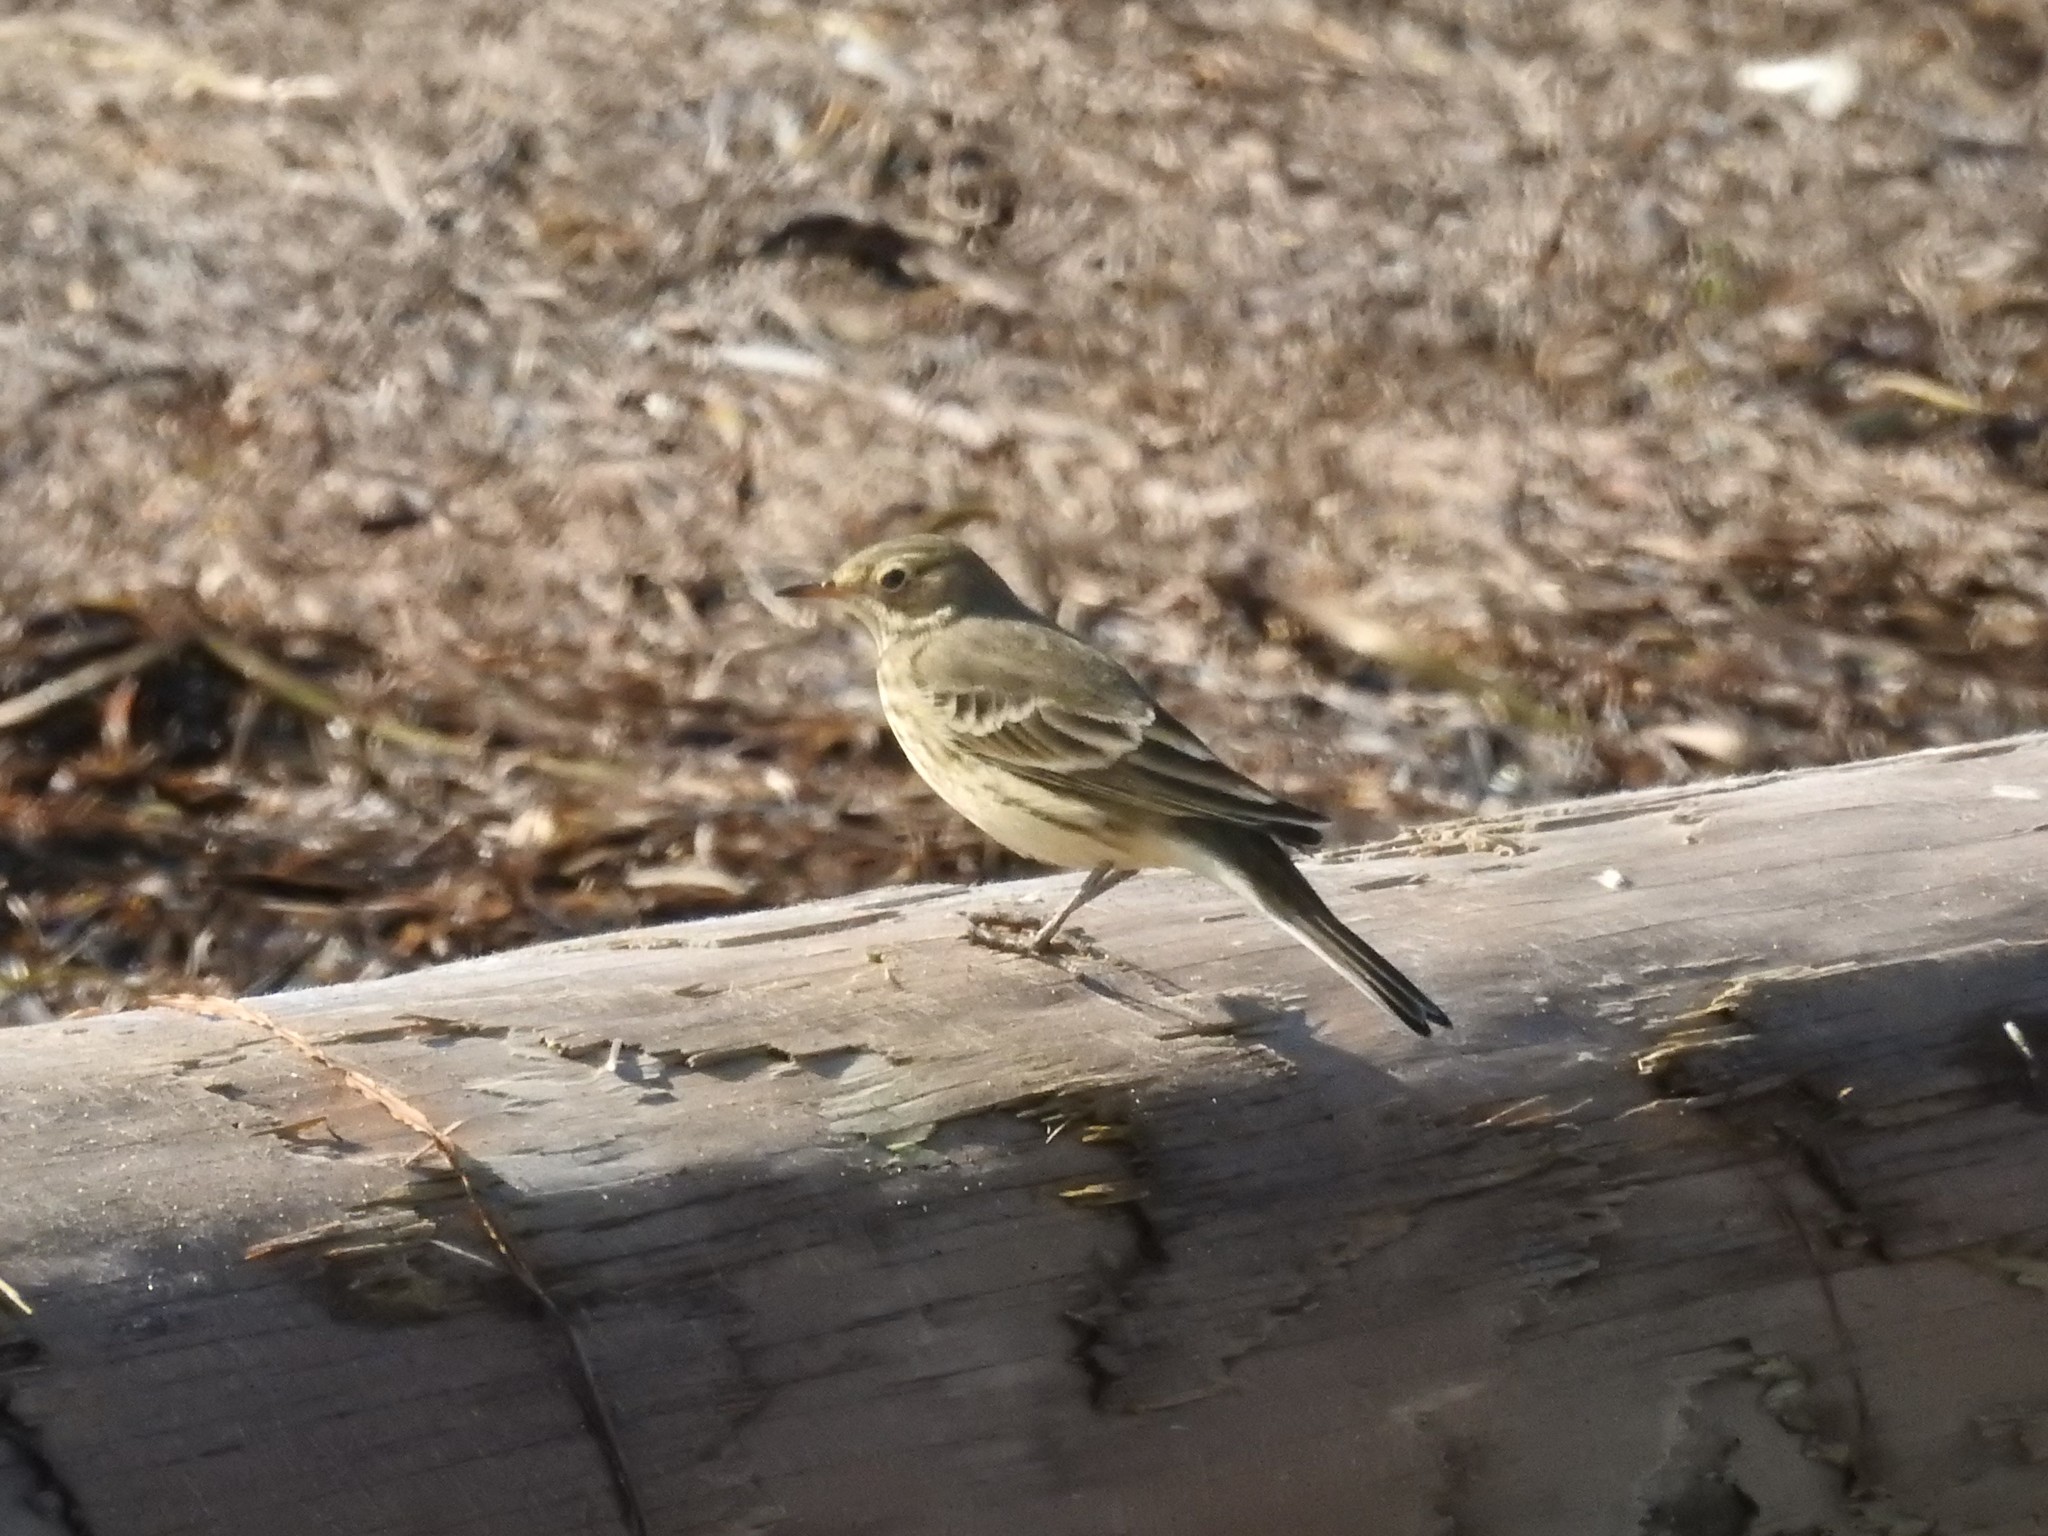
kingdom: Animalia
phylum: Chordata
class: Aves
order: Passeriformes
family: Motacillidae
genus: Anthus
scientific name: Anthus rubescens
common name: Buff-bellied pipit
